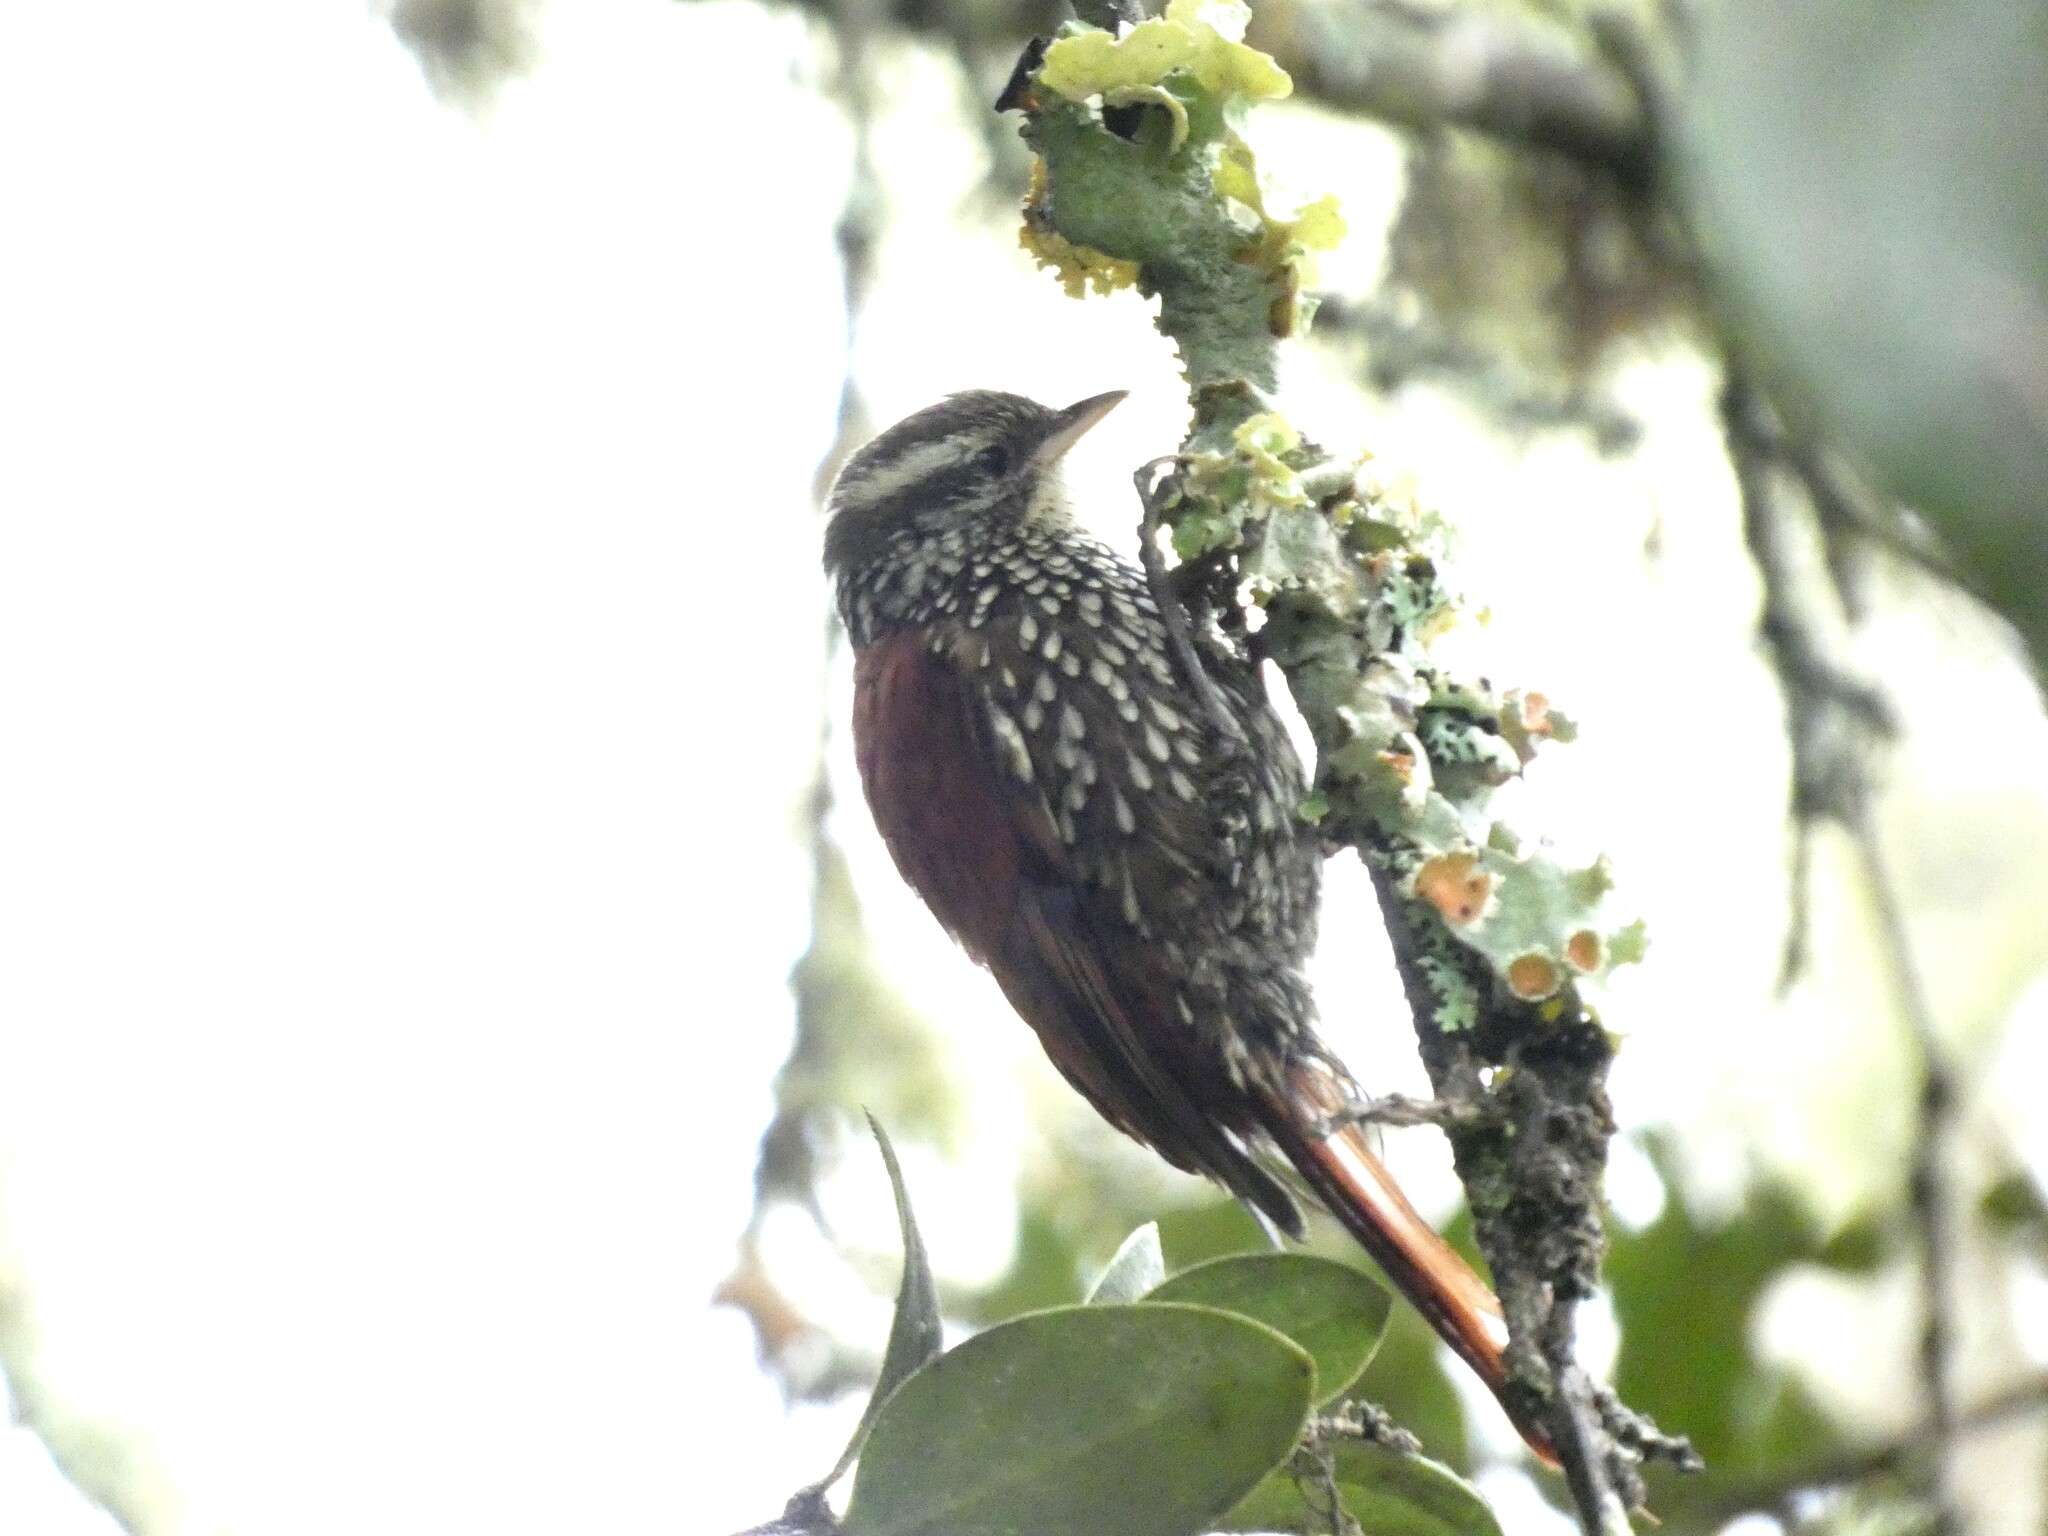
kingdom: Animalia
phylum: Chordata
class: Aves
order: Passeriformes
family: Furnariidae
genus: Margarornis
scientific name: Margarornis squamiger
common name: Pearled treerunner
